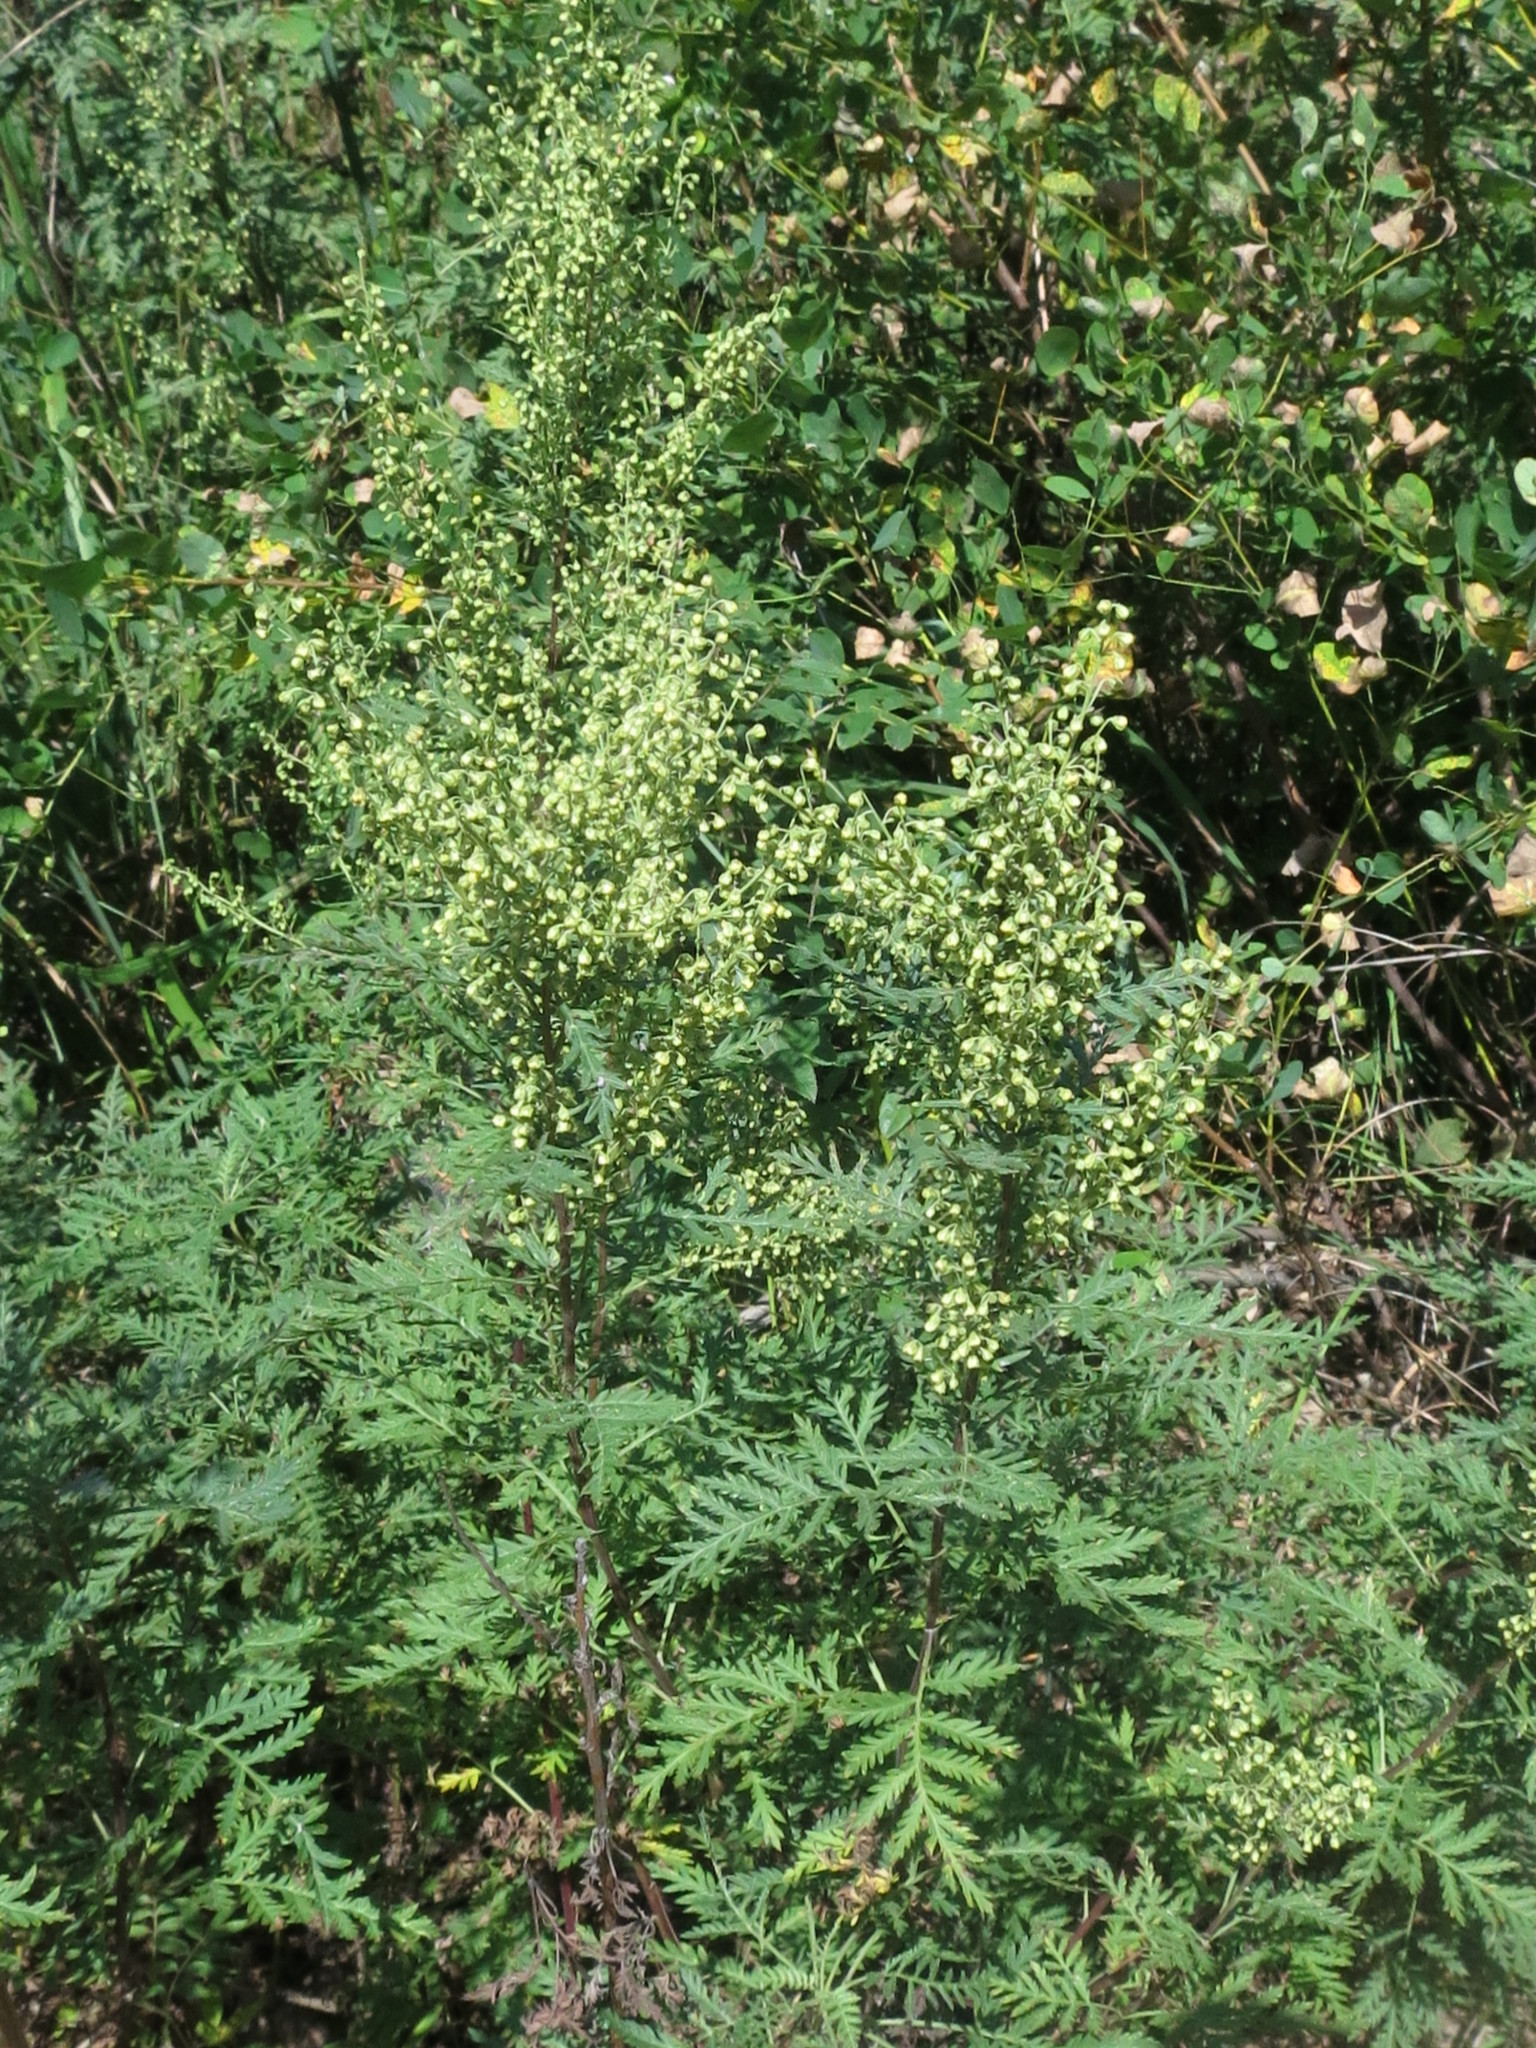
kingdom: Plantae
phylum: Tracheophyta
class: Magnoliopsida
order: Asterales
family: Asteraceae
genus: Artemisia
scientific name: Artemisia gmelinii
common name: Gmelin's wormwood
